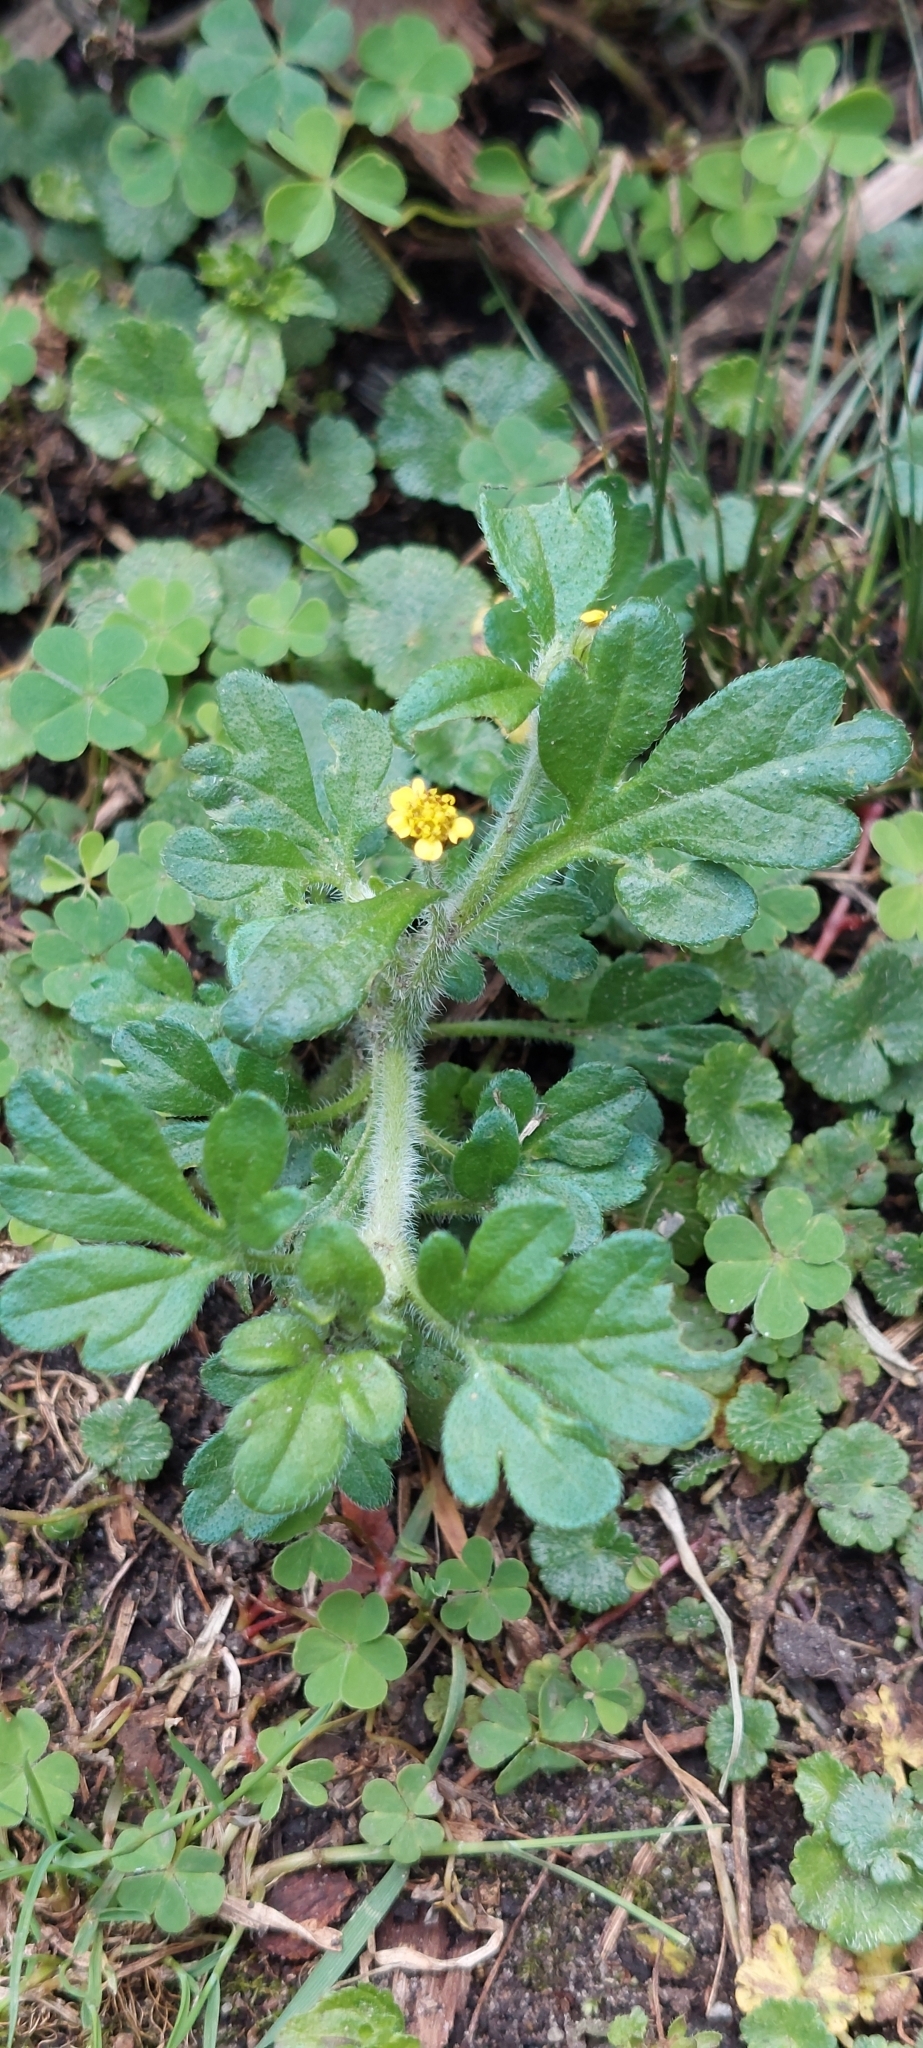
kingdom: Plantae
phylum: Tracheophyta
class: Magnoliopsida
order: Asterales
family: Asteraceae
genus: Villanova
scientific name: Villanova oppositifolia
